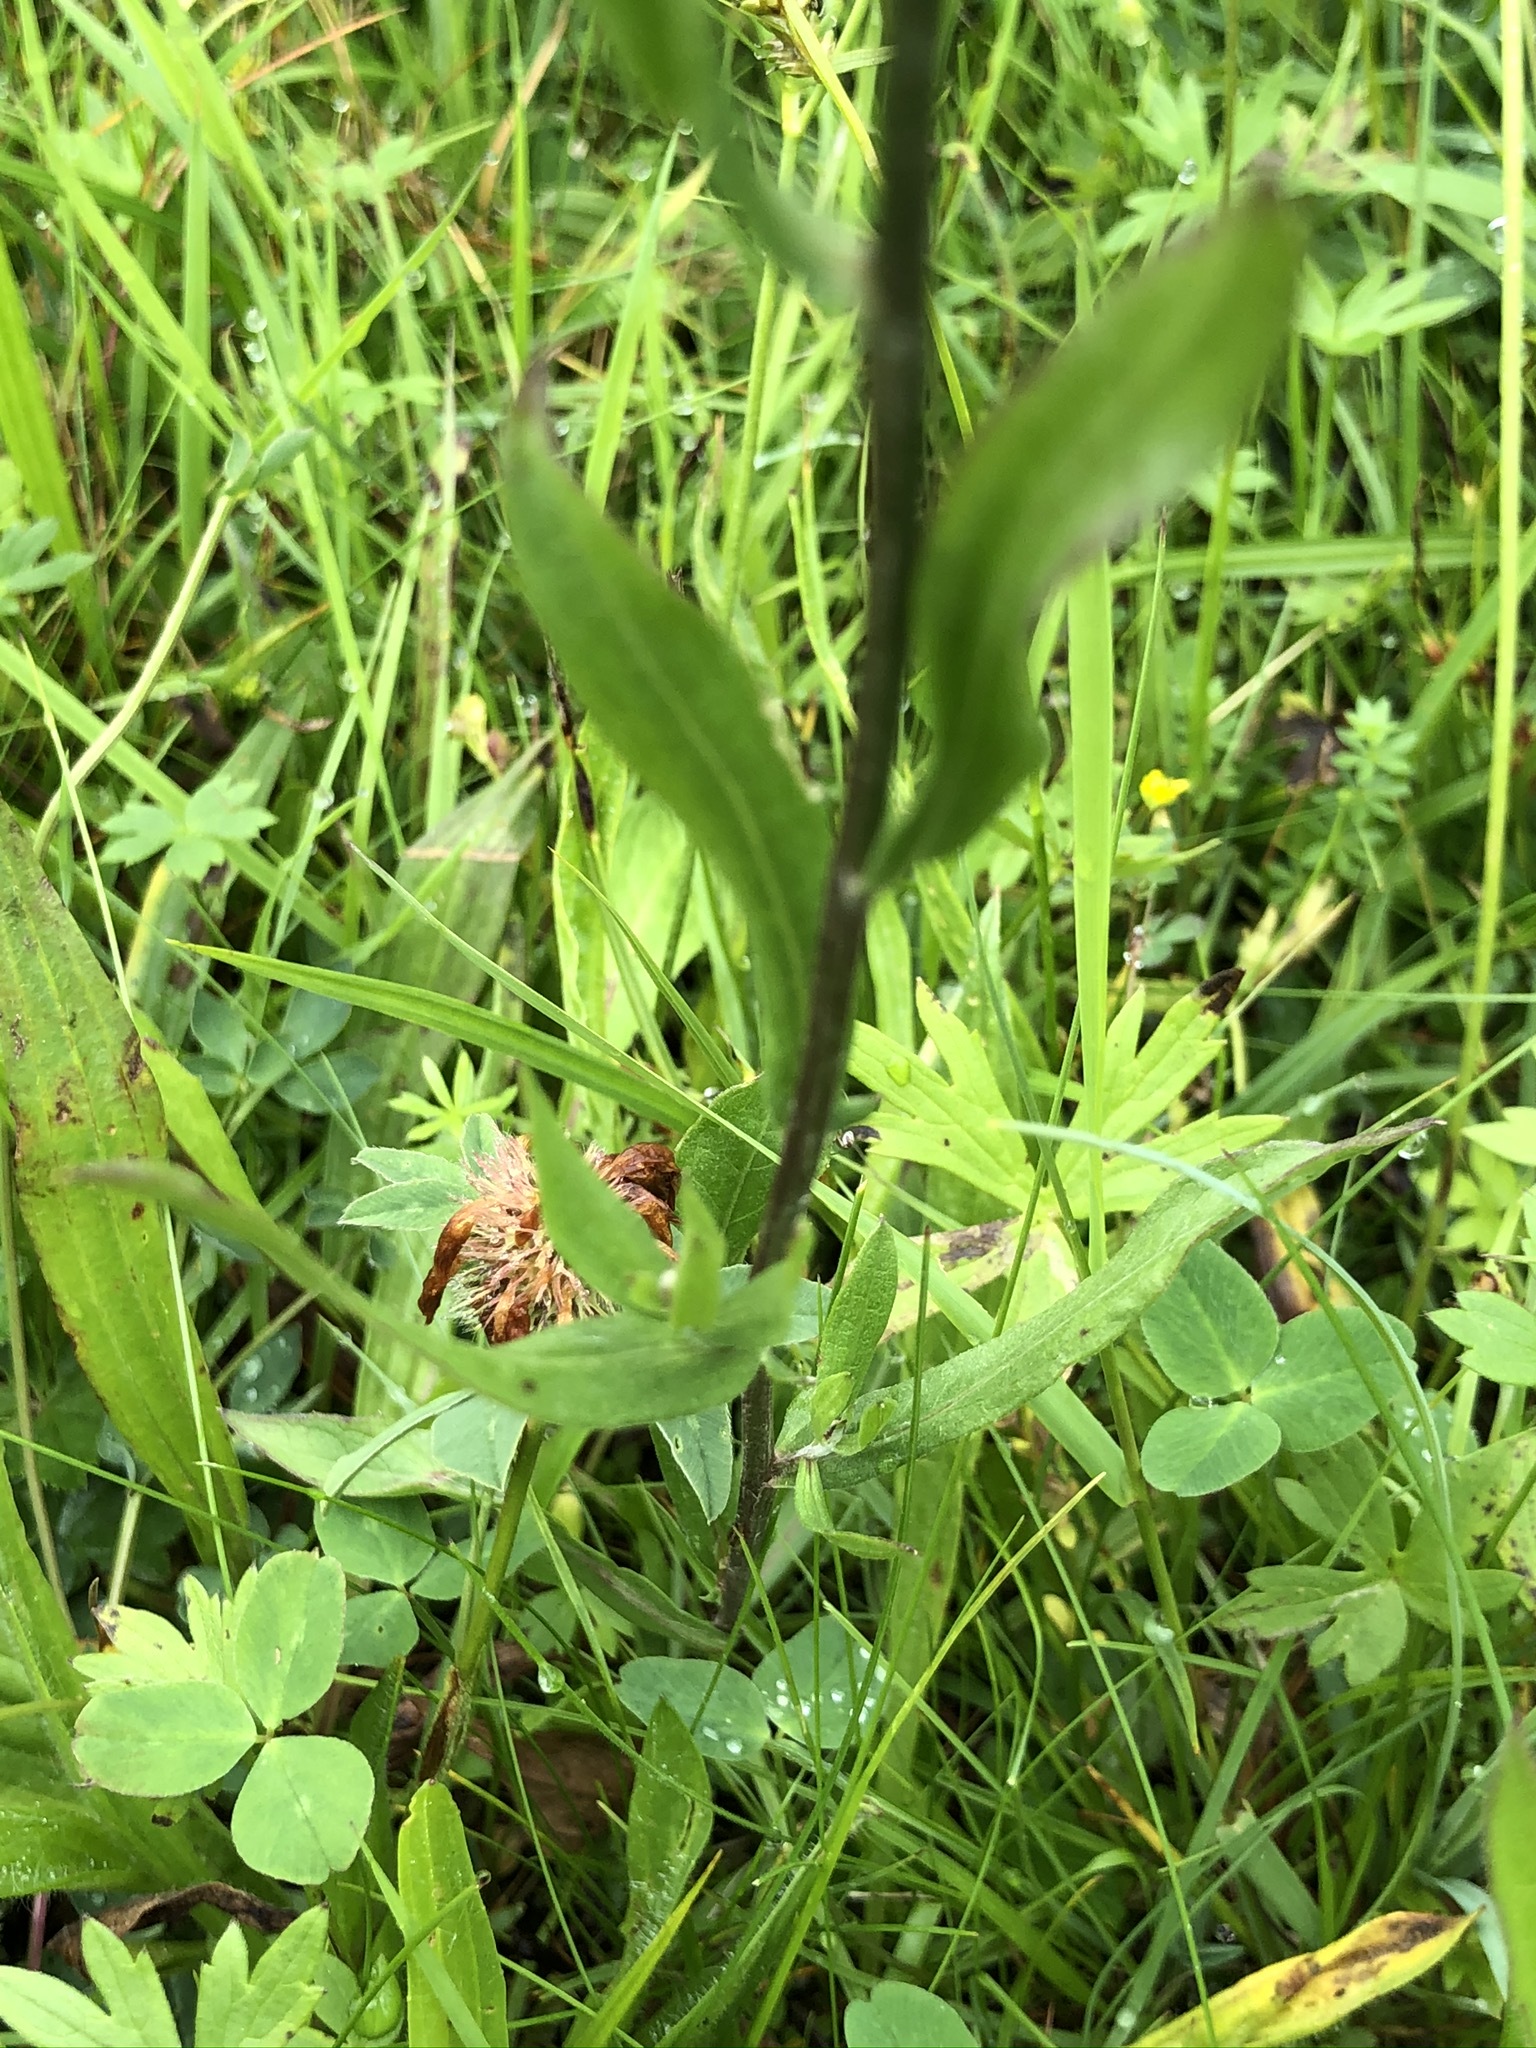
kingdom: Plantae
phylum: Tracheophyta
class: Magnoliopsida
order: Asterales
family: Asteraceae
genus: Centaurea
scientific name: Centaurea jacea
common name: Brown knapweed
